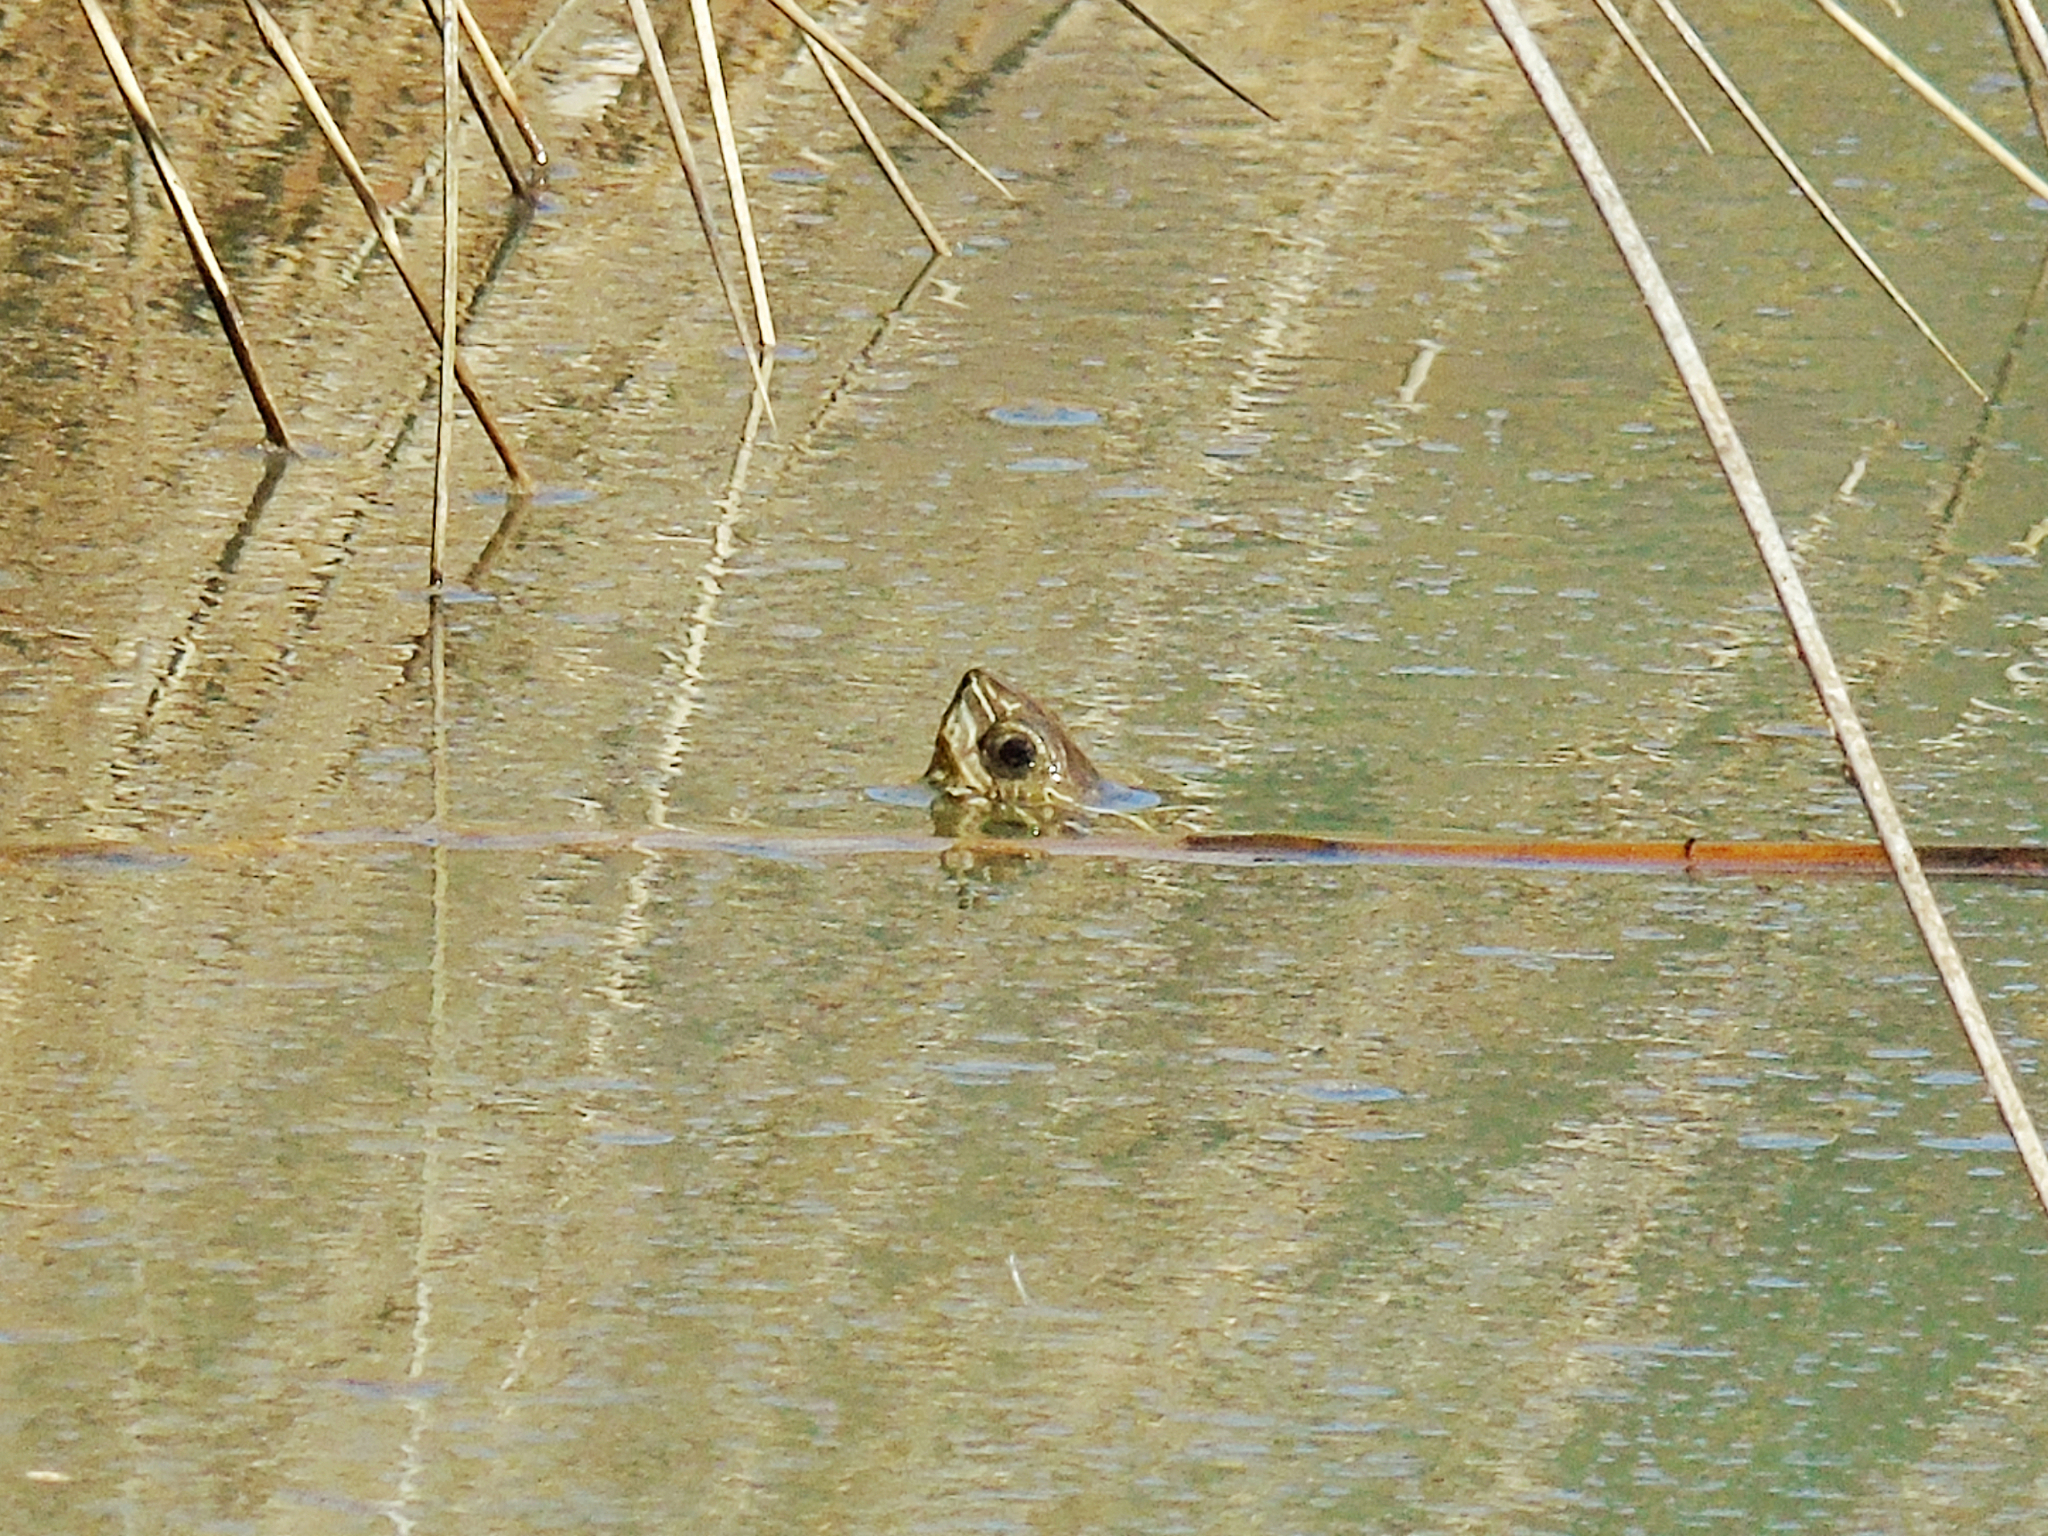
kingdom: Animalia
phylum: Chordata
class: Testudines
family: Geoemydidae
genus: Mauremys
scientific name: Mauremys rivulata
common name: Western caspian turtle
